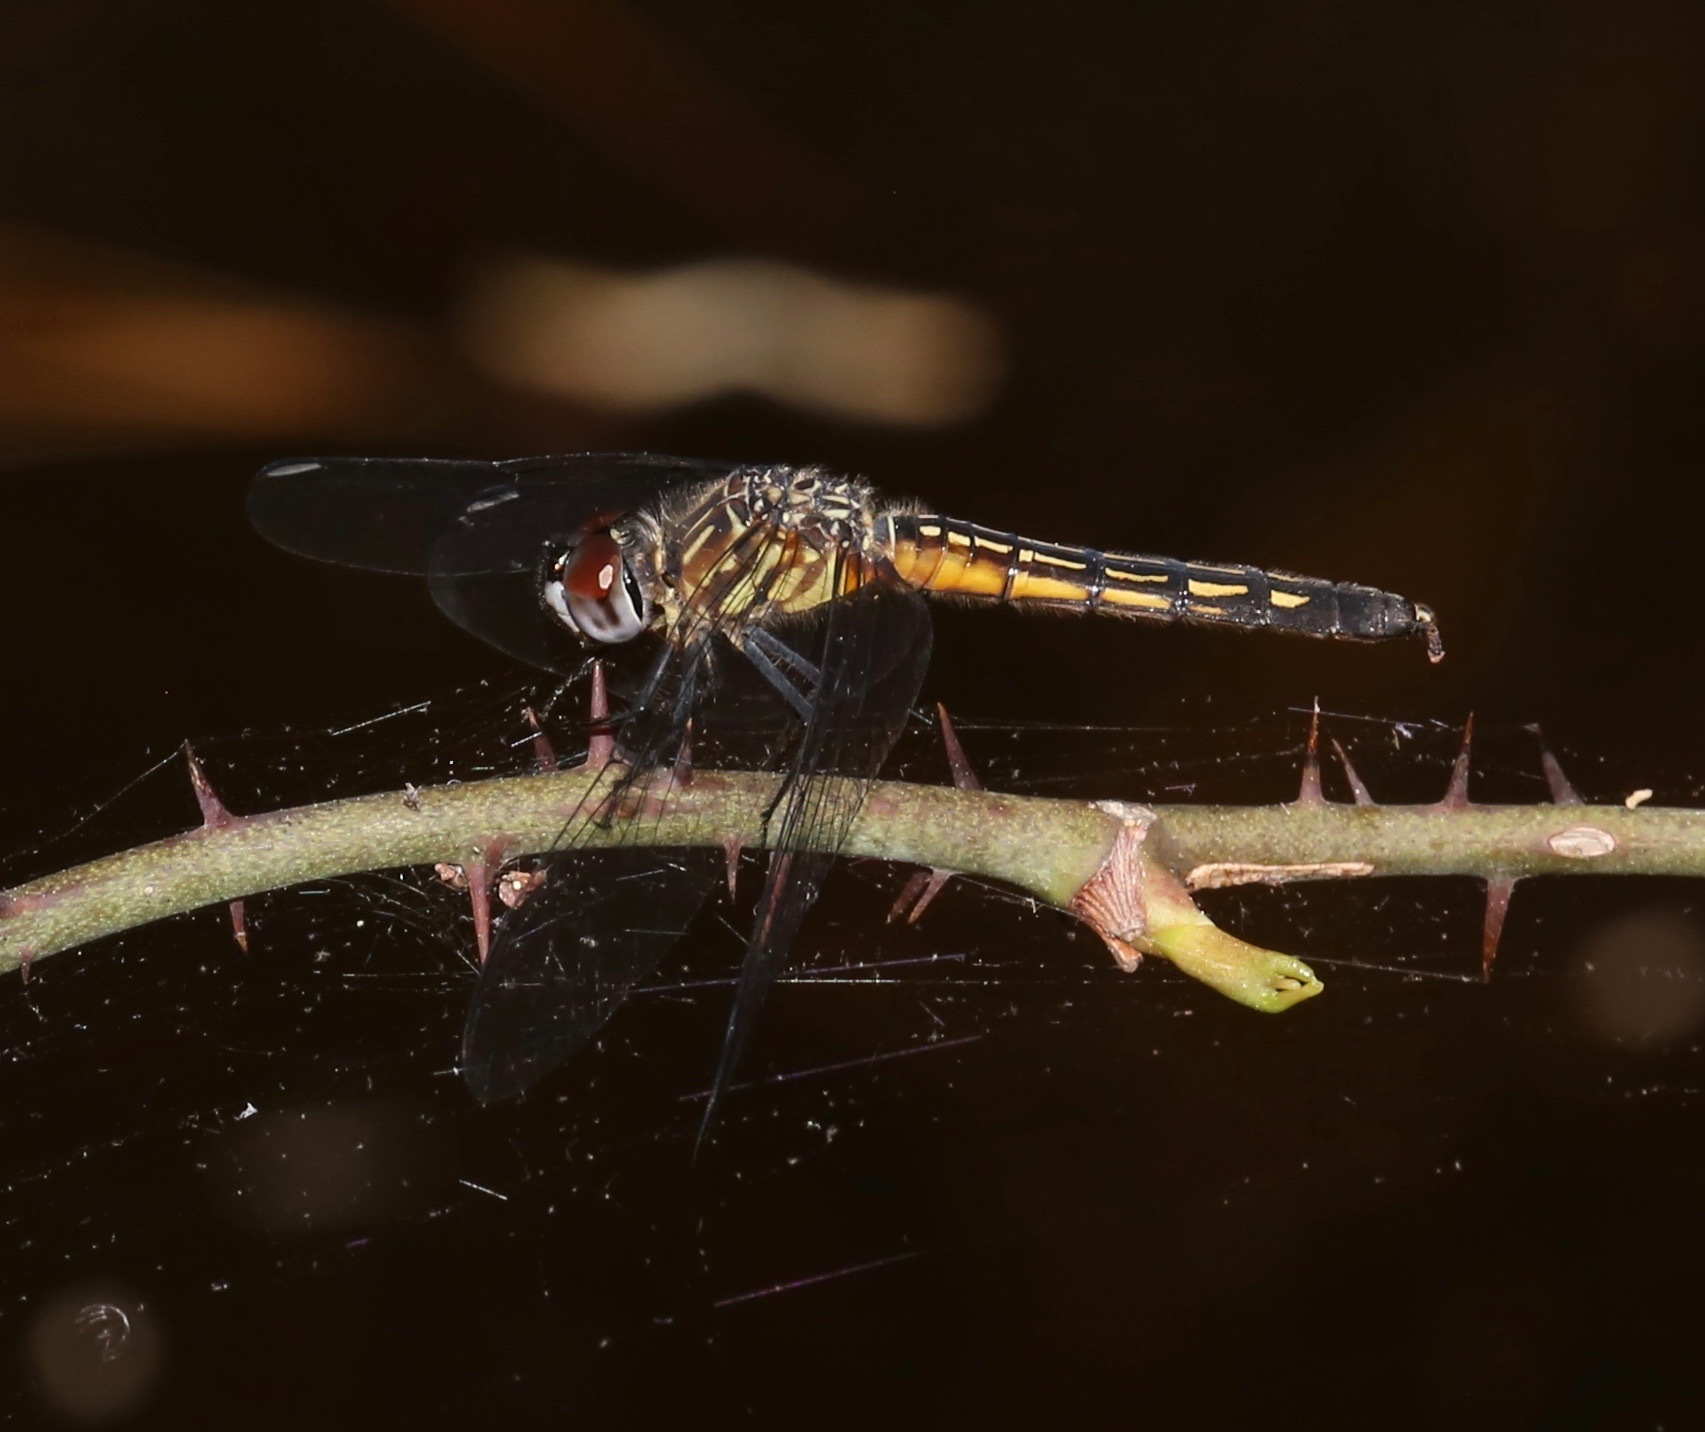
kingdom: Animalia
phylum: Arthropoda
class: Insecta
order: Odonata
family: Libellulidae
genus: Pachydiplax
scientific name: Pachydiplax longipennis
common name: Blue dasher
